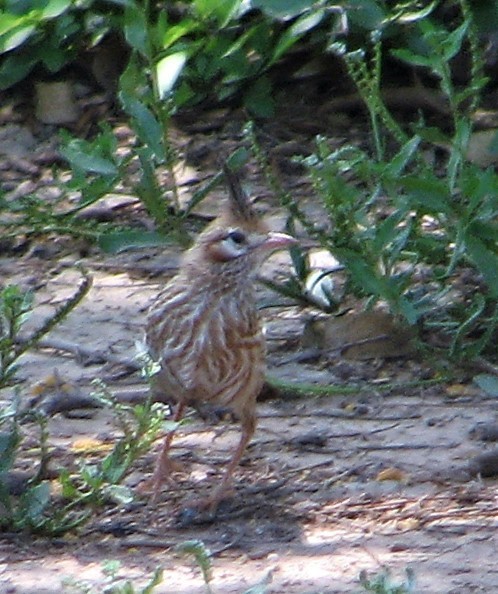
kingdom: Animalia
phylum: Chordata
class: Aves
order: Passeriformes
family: Furnariidae
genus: Coryphistera
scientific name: Coryphistera alaudina
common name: Lark-like brushrunner
